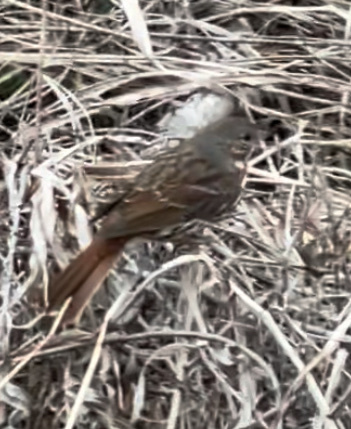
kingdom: Animalia
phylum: Chordata
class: Aves
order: Passeriformes
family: Passerellidae
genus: Passerella
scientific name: Passerella iliaca
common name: Fox sparrow
